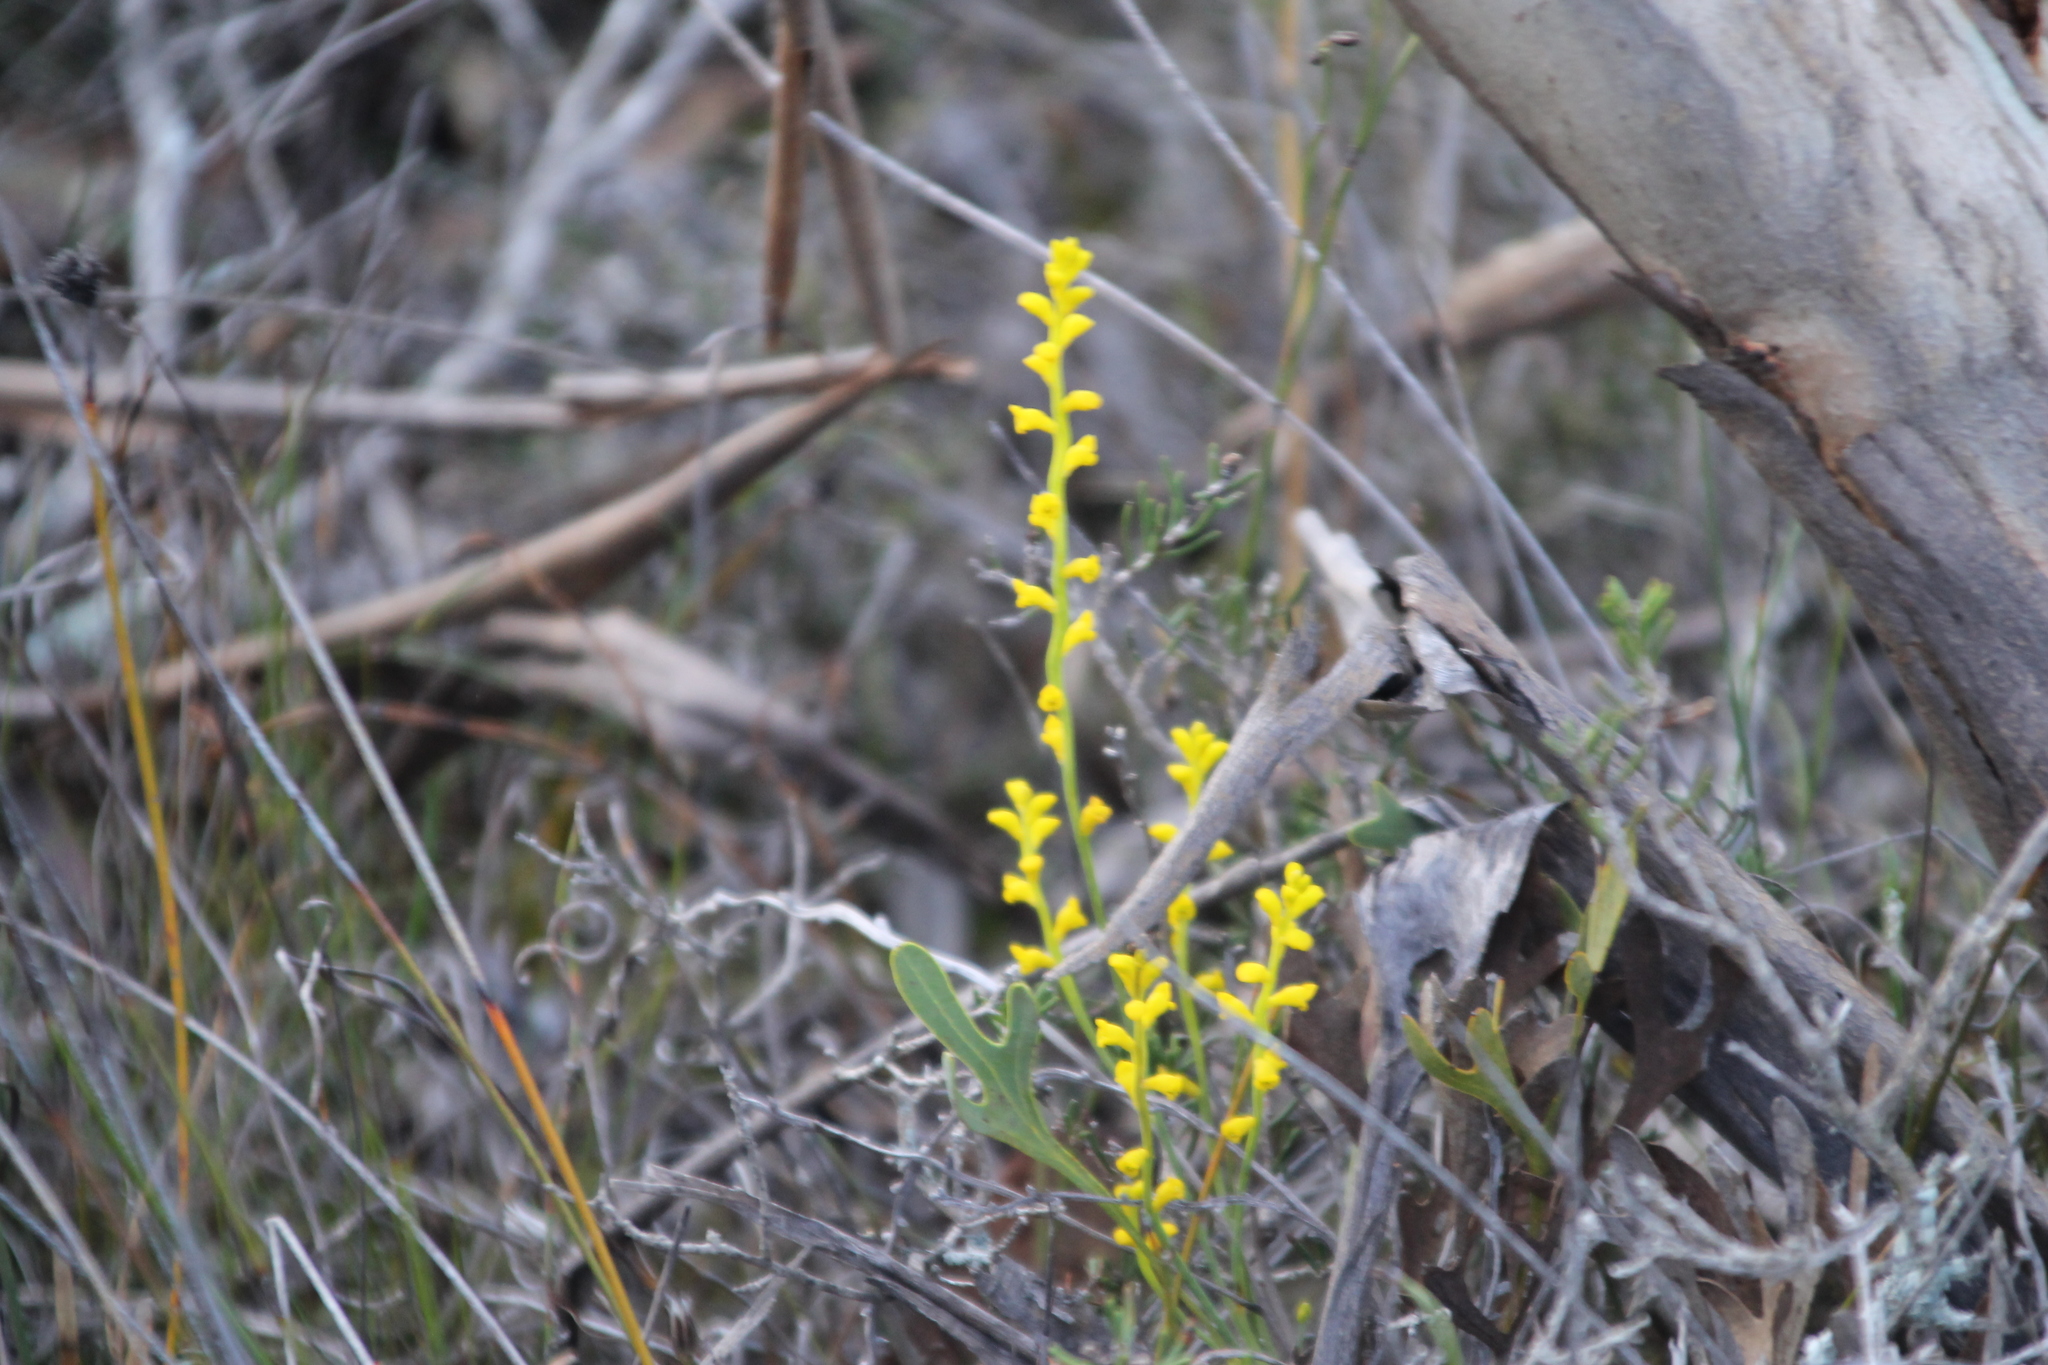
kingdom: Plantae
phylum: Tracheophyta
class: Magnoliopsida
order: Proteales
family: Proteaceae
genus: Synaphea
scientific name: Synaphea media
